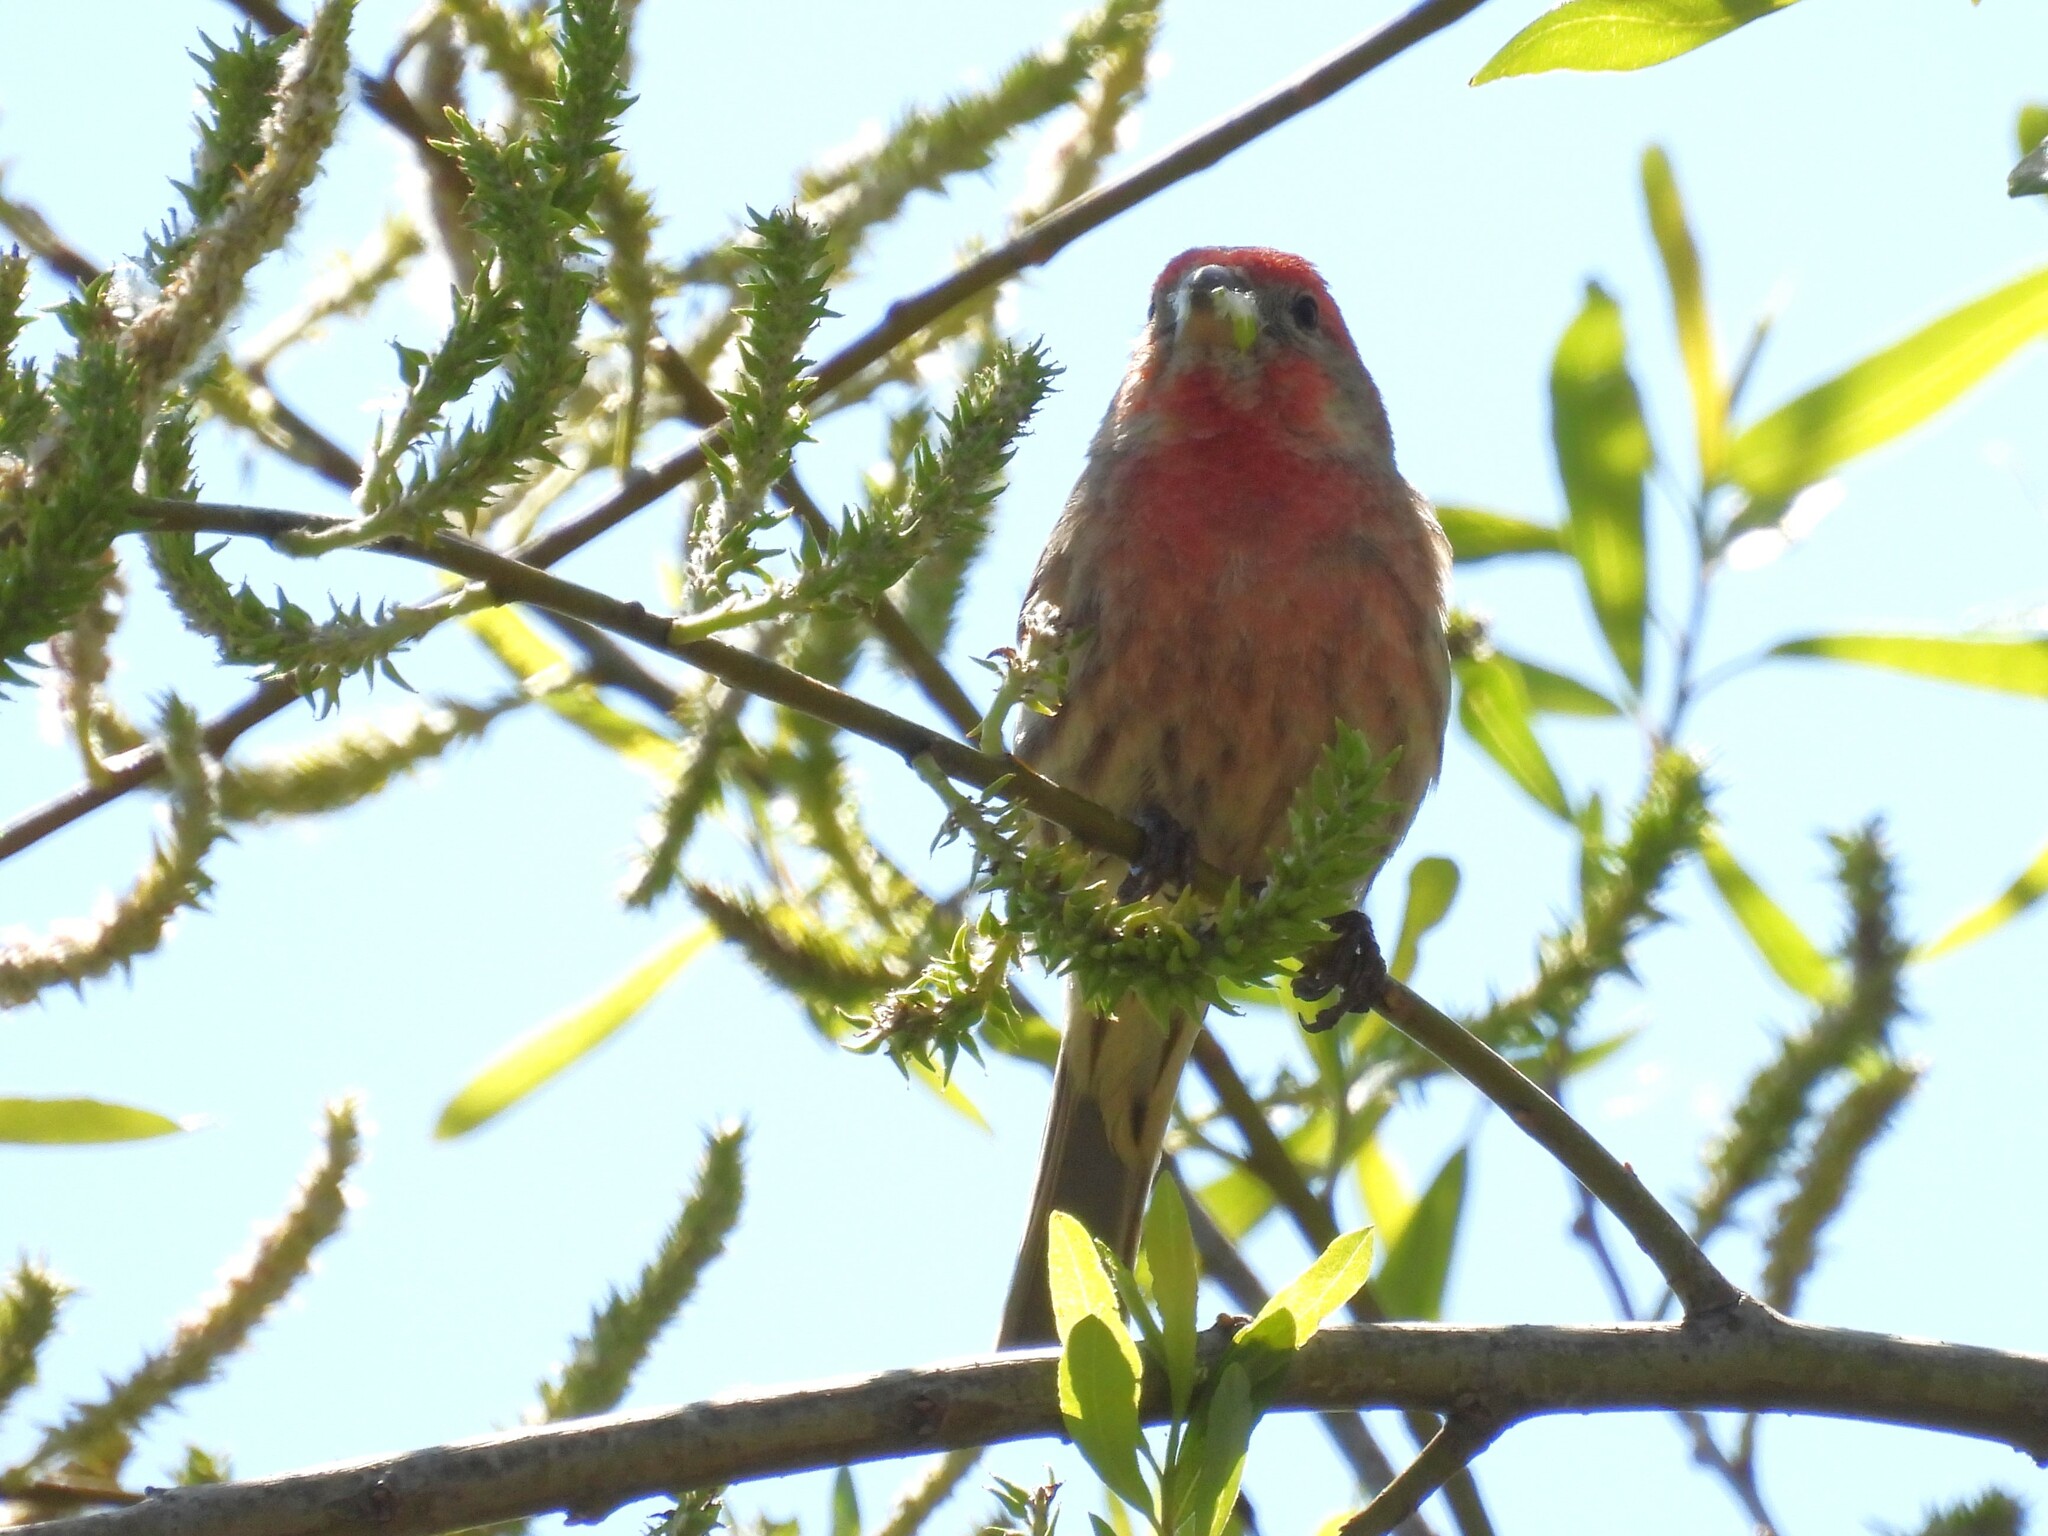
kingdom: Animalia
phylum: Chordata
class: Aves
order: Passeriformes
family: Fringillidae
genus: Haemorhous
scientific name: Haemorhous mexicanus
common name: House finch
